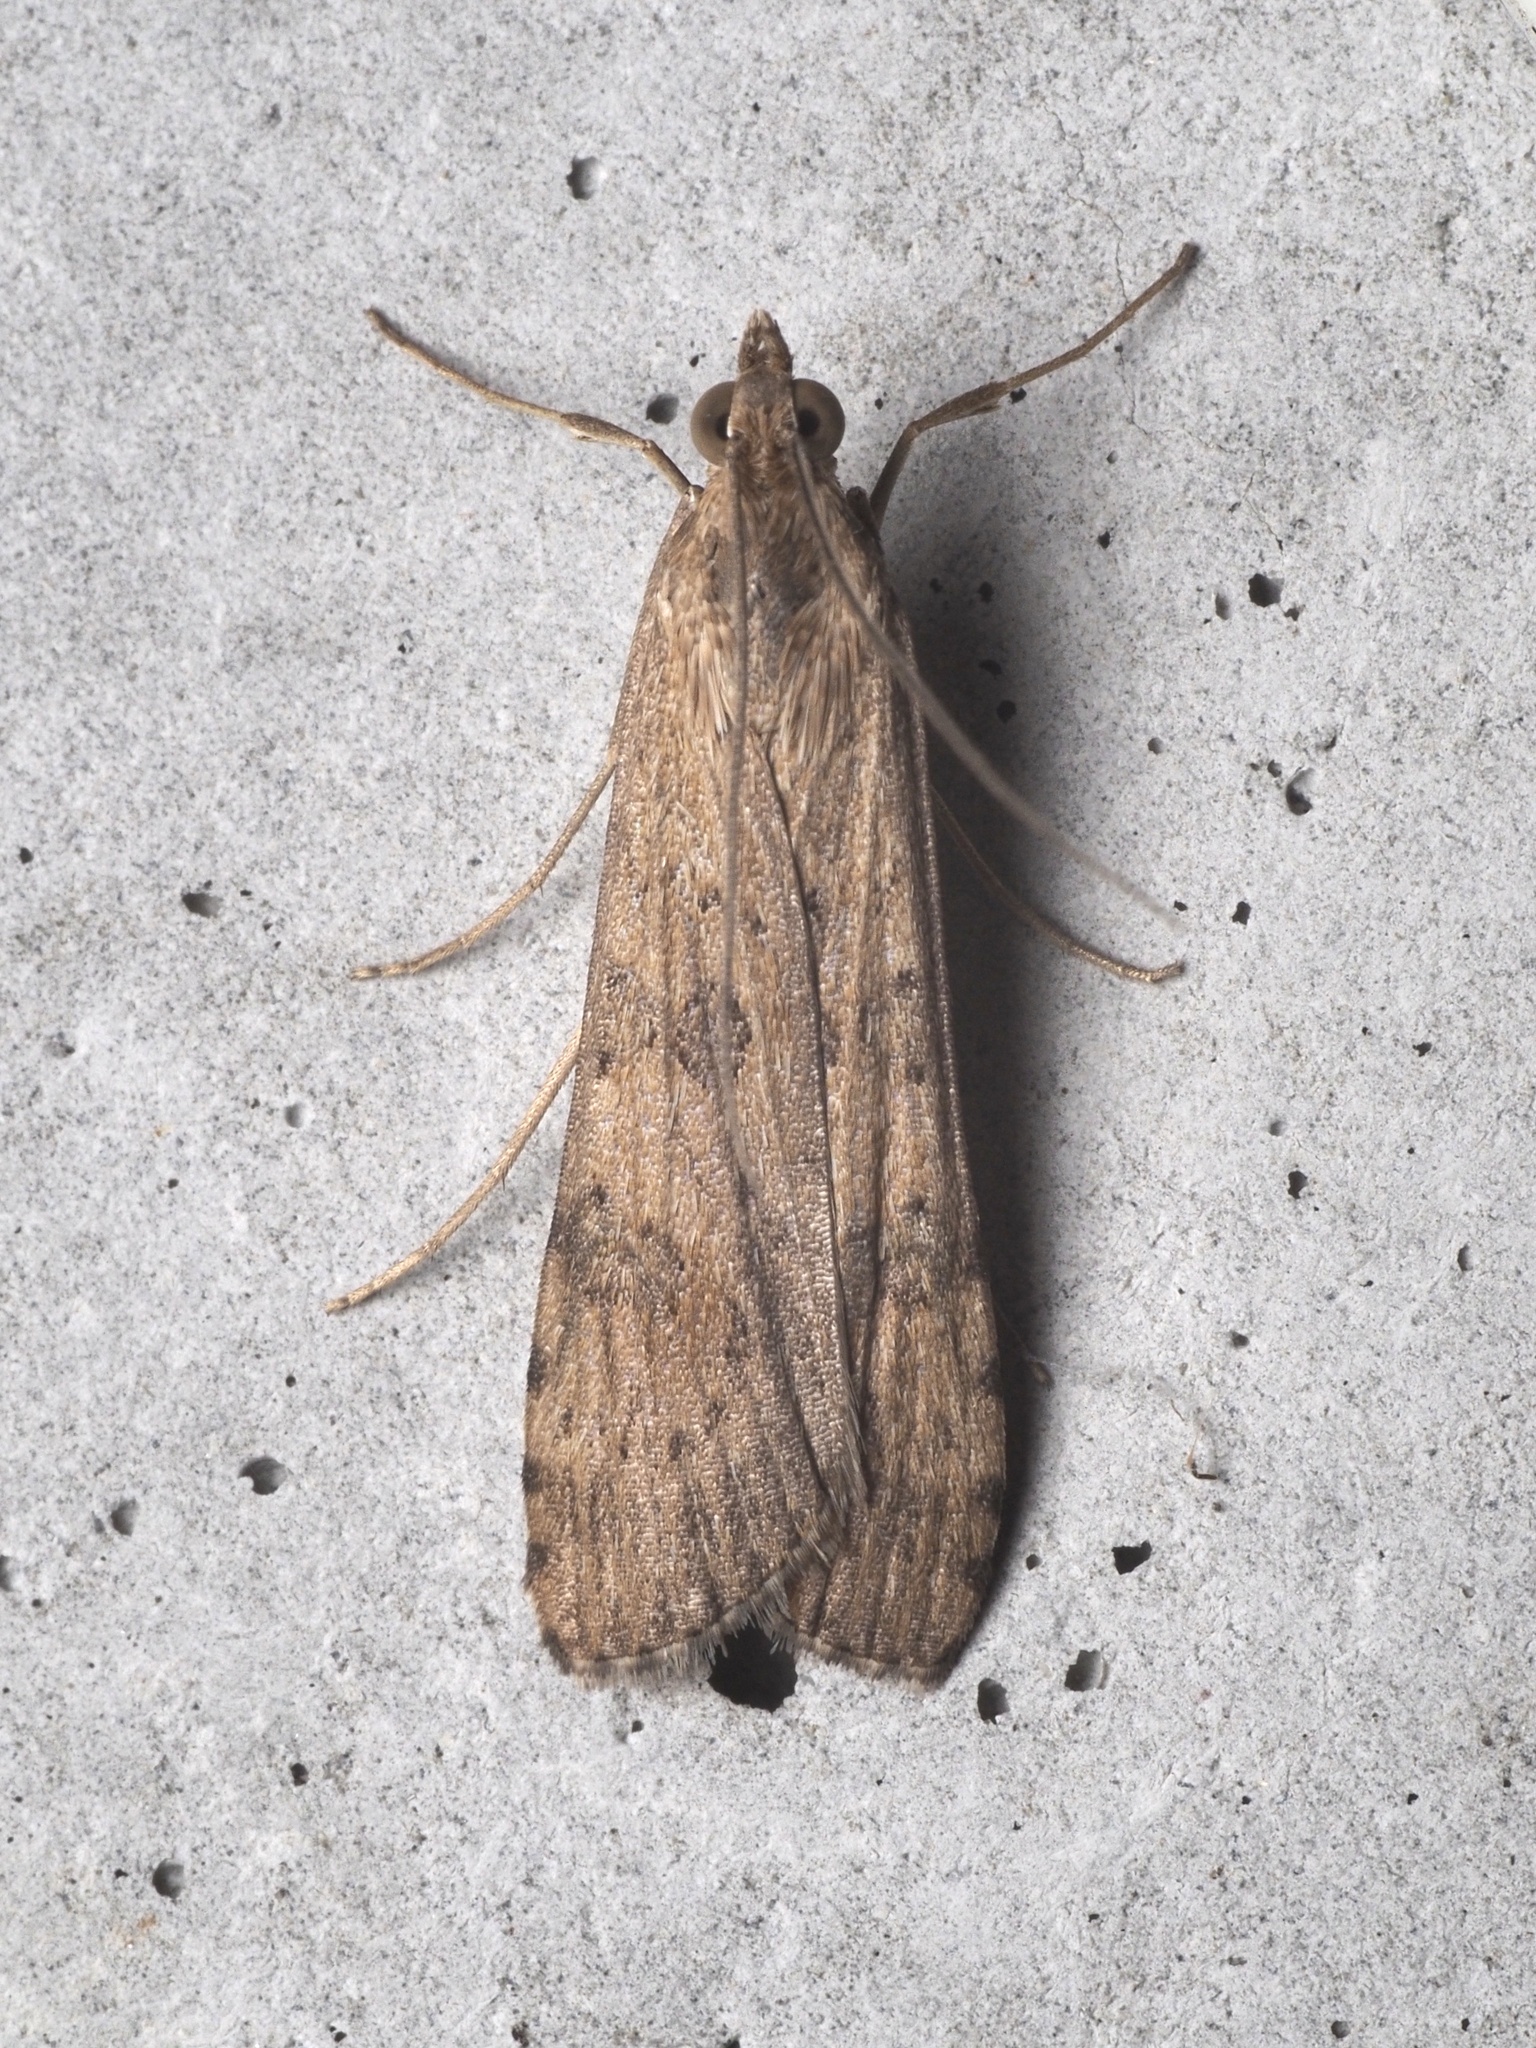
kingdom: Animalia
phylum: Arthropoda
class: Insecta
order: Lepidoptera
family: Crambidae
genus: Nomophila
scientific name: Nomophila noctuella
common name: Rush veneer
